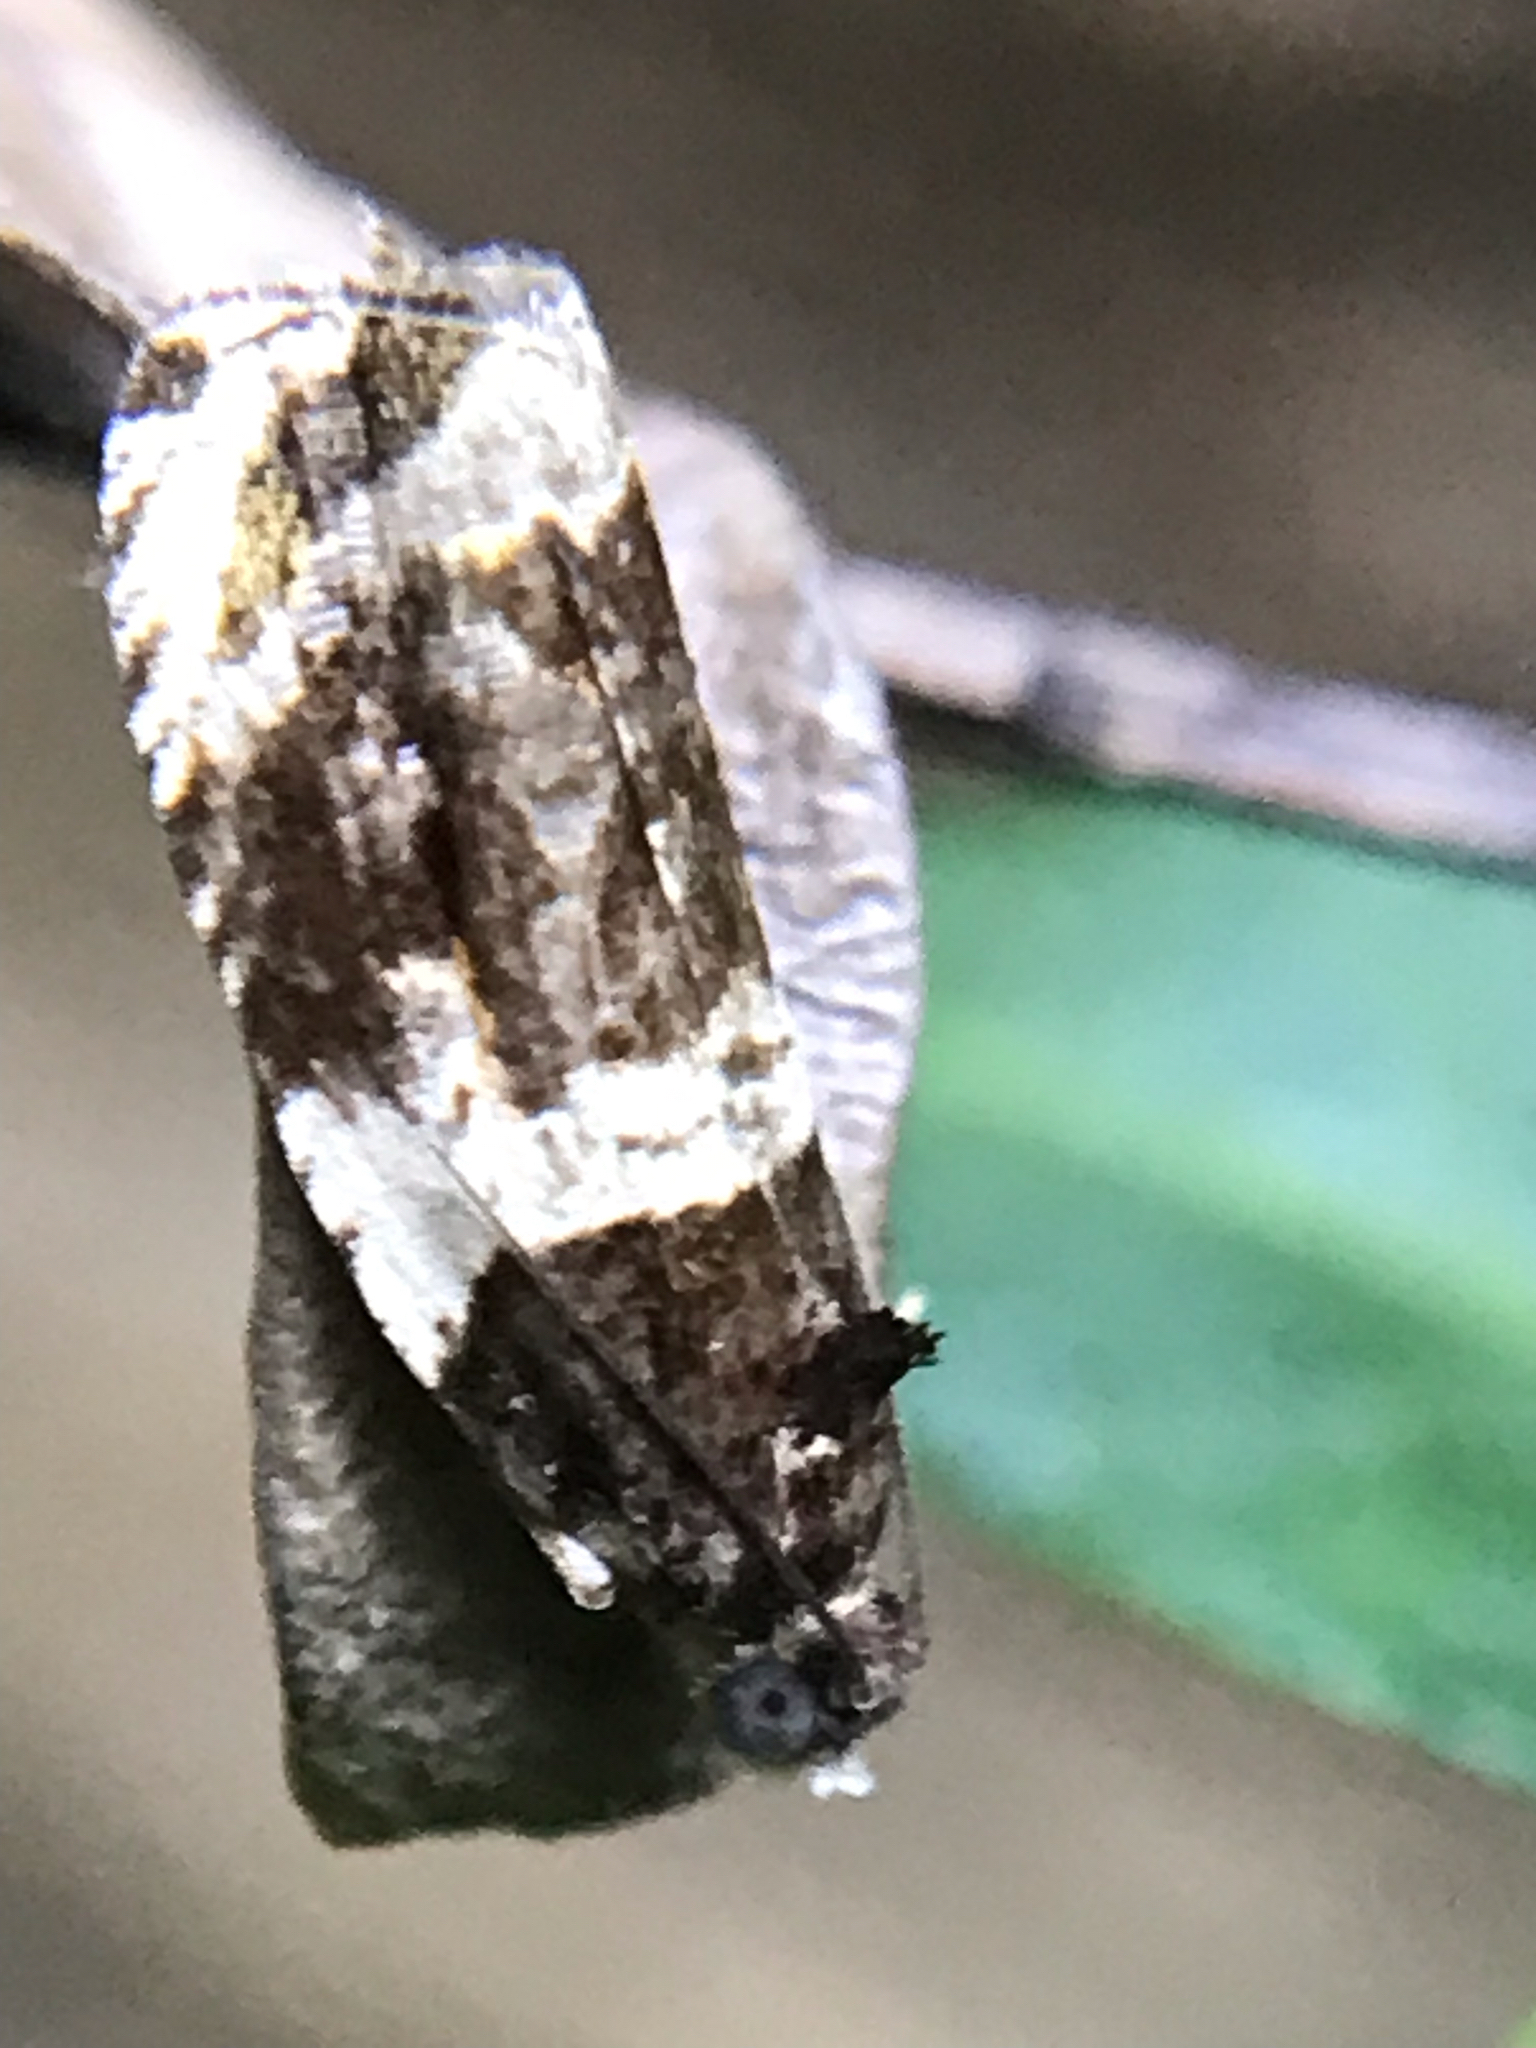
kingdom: Animalia
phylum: Arthropoda
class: Insecta
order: Lepidoptera
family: Tortricidae
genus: Olethreutes
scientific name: Olethreutes fasciatana
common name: Banded olethreutes moth
